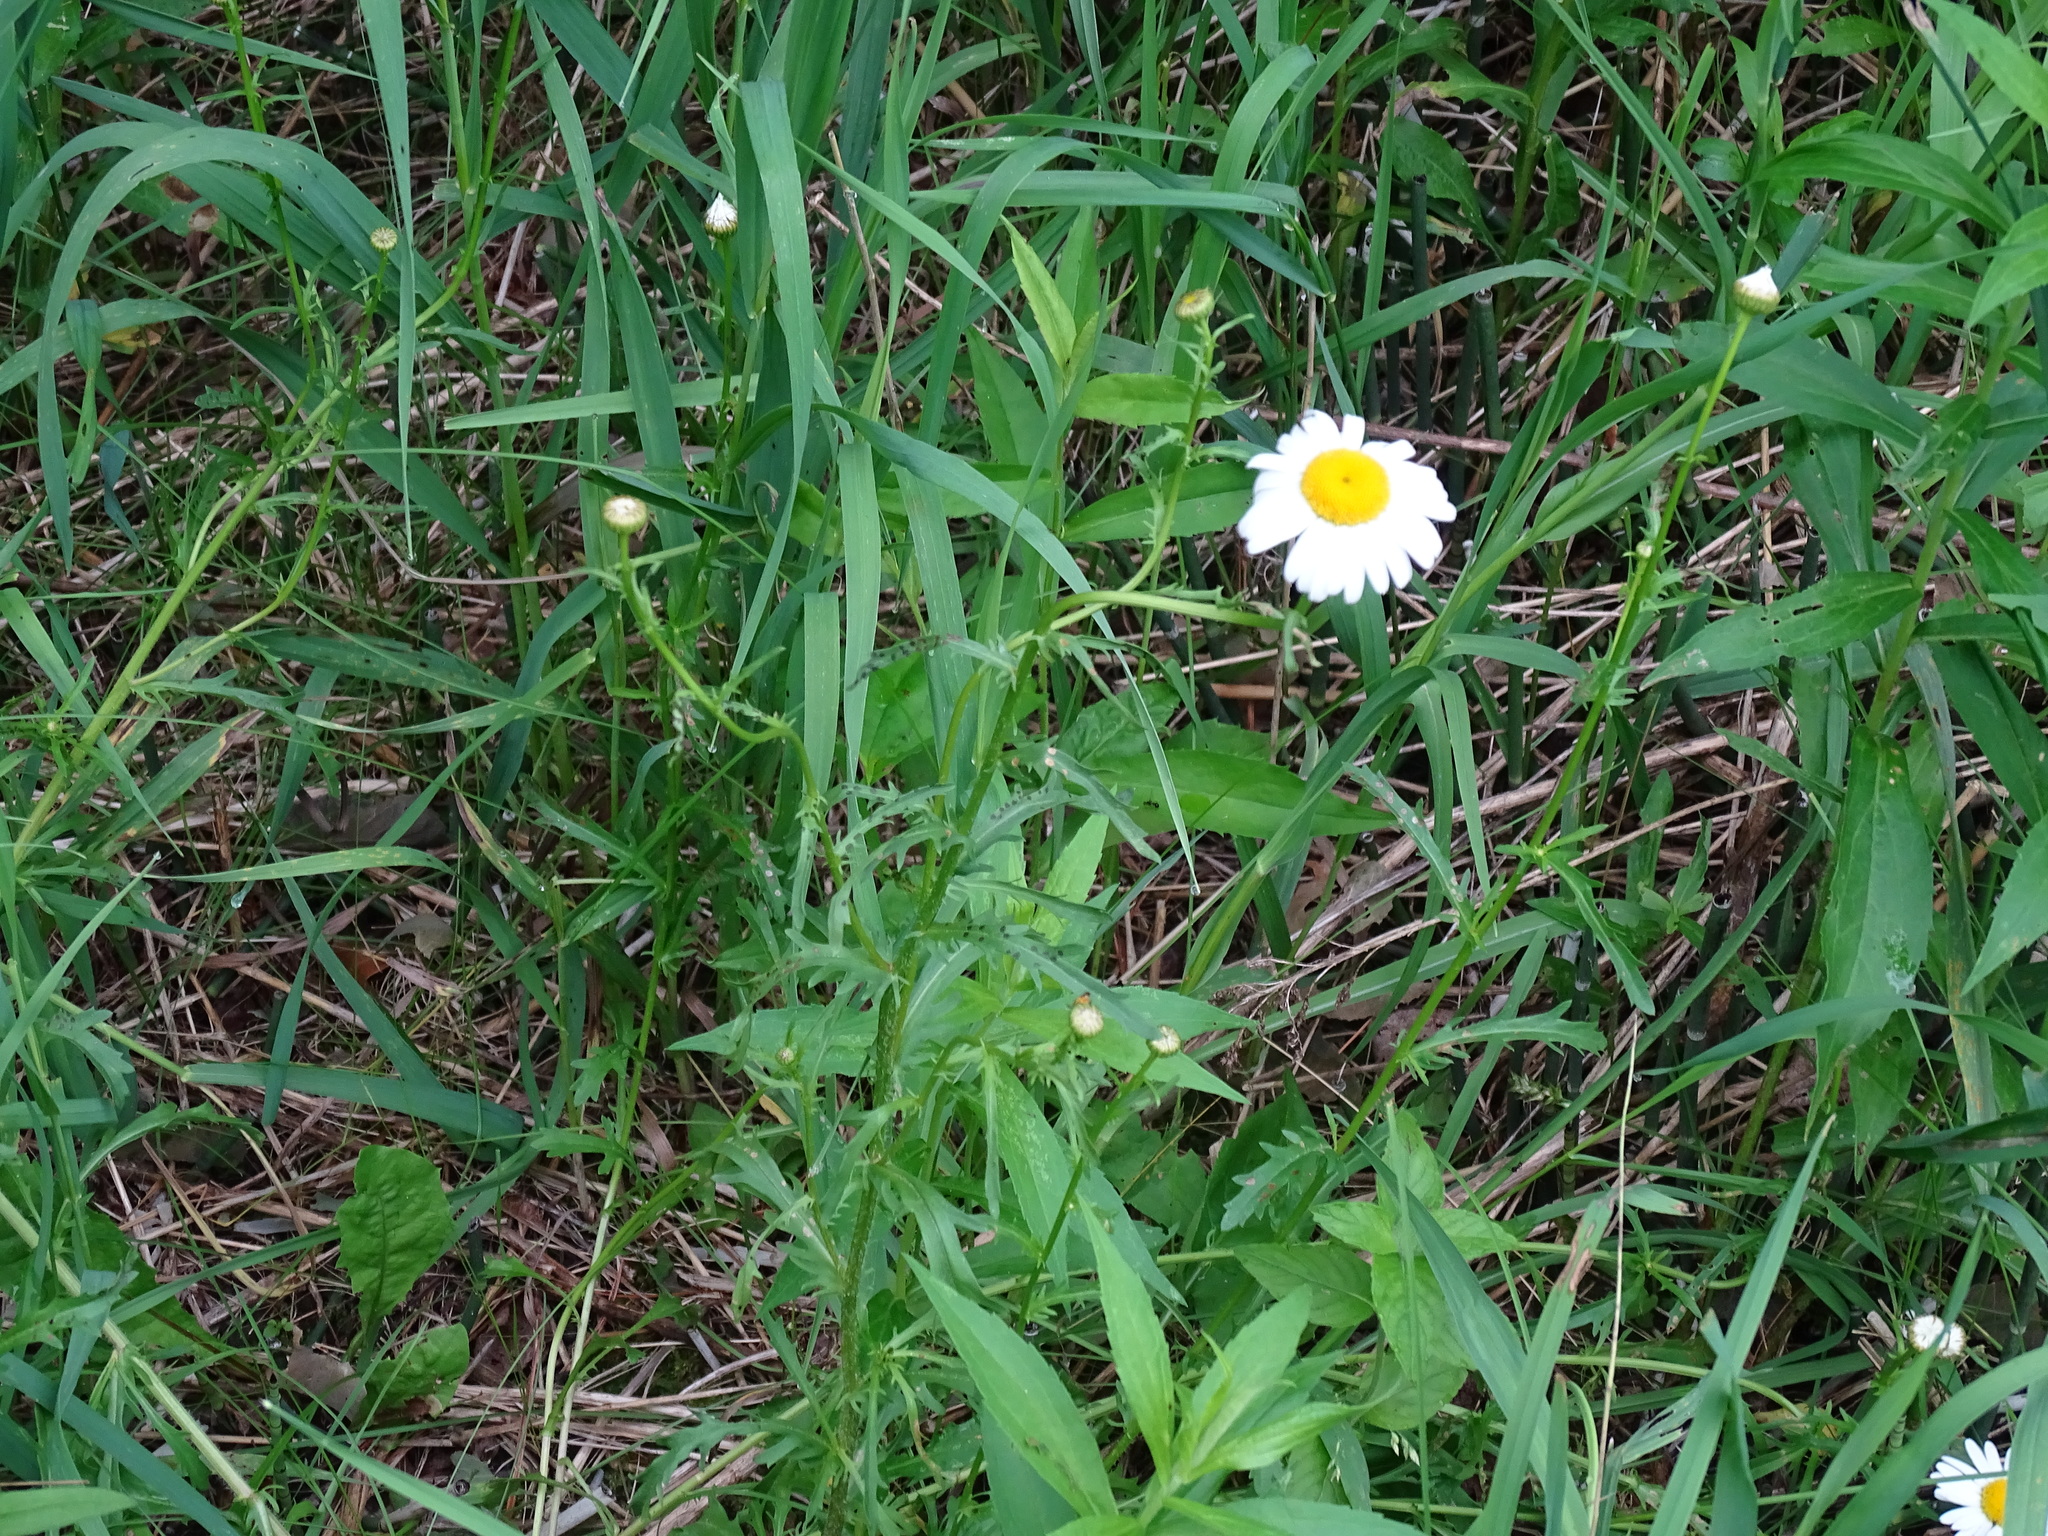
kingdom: Plantae
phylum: Tracheophyta
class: Magnoliopsida
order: Asterales
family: Asteraceae
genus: Leucanthemum
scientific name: Leucanthemum vulgare
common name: Oxeye daisy
